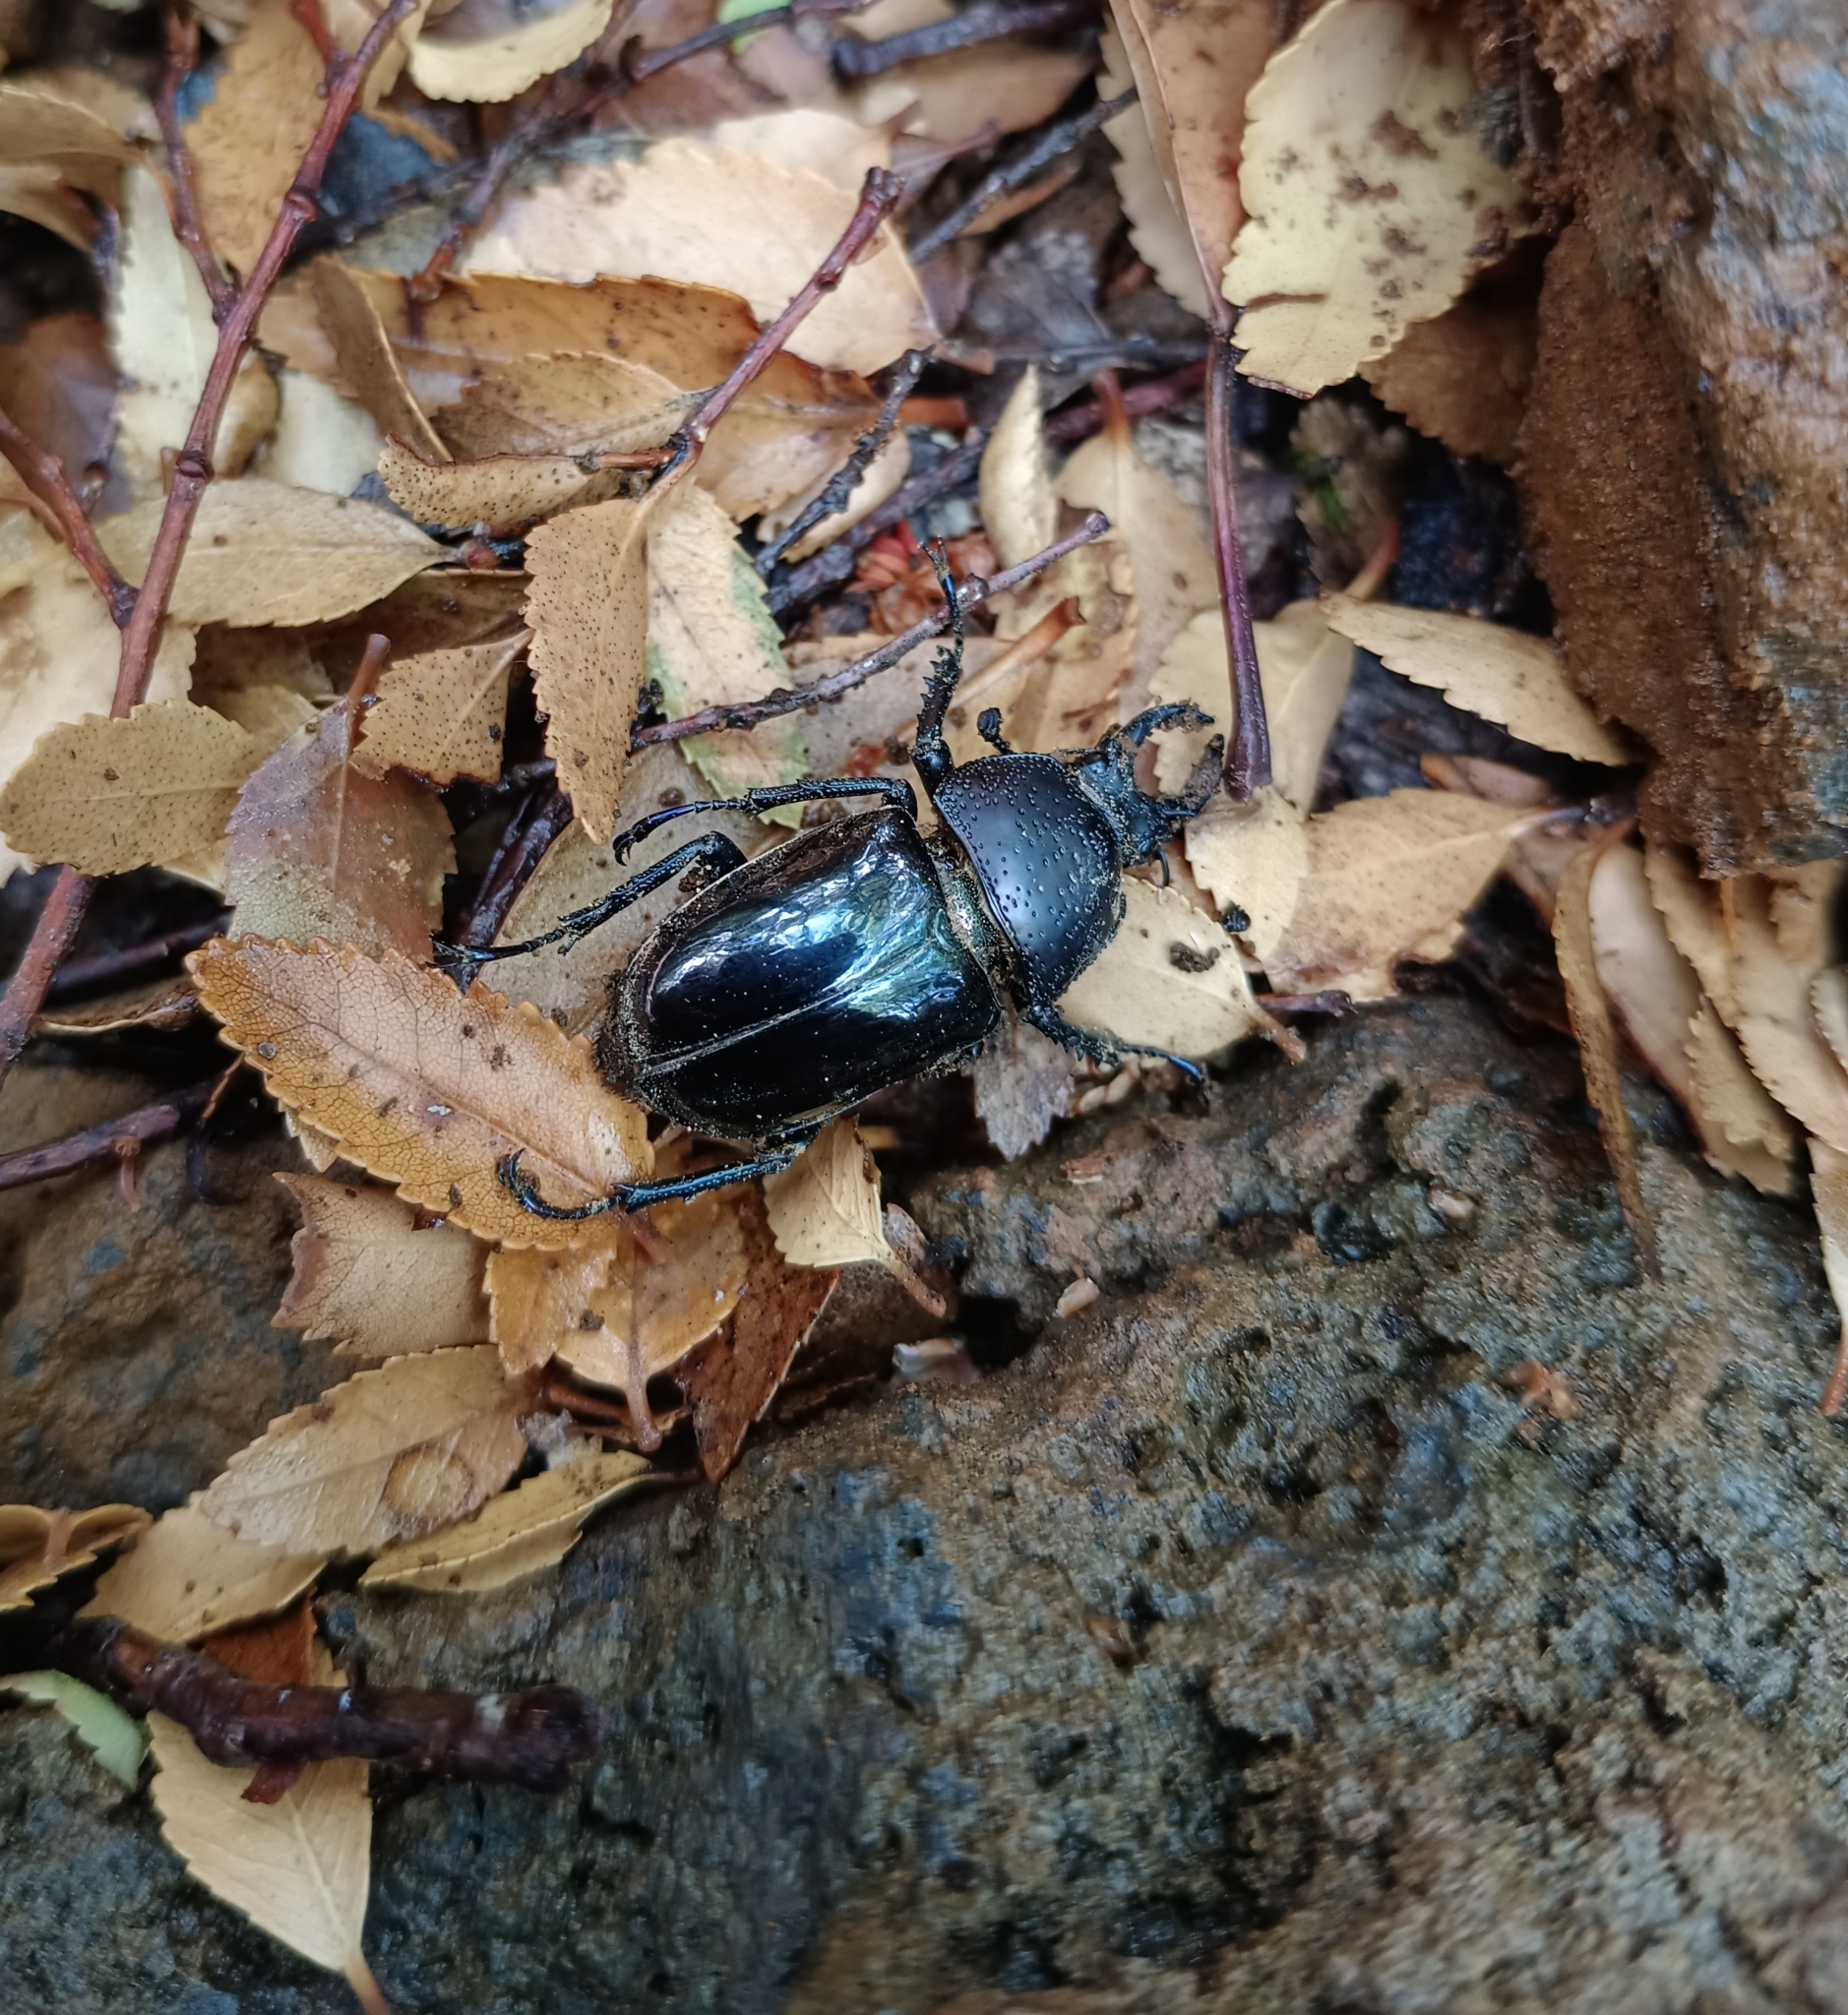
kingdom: Animalia
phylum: Arthropoda
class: Insecta
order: Coleoptera
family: Lucanidae
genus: Streptocerus
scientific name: Streptocerus speciosus
